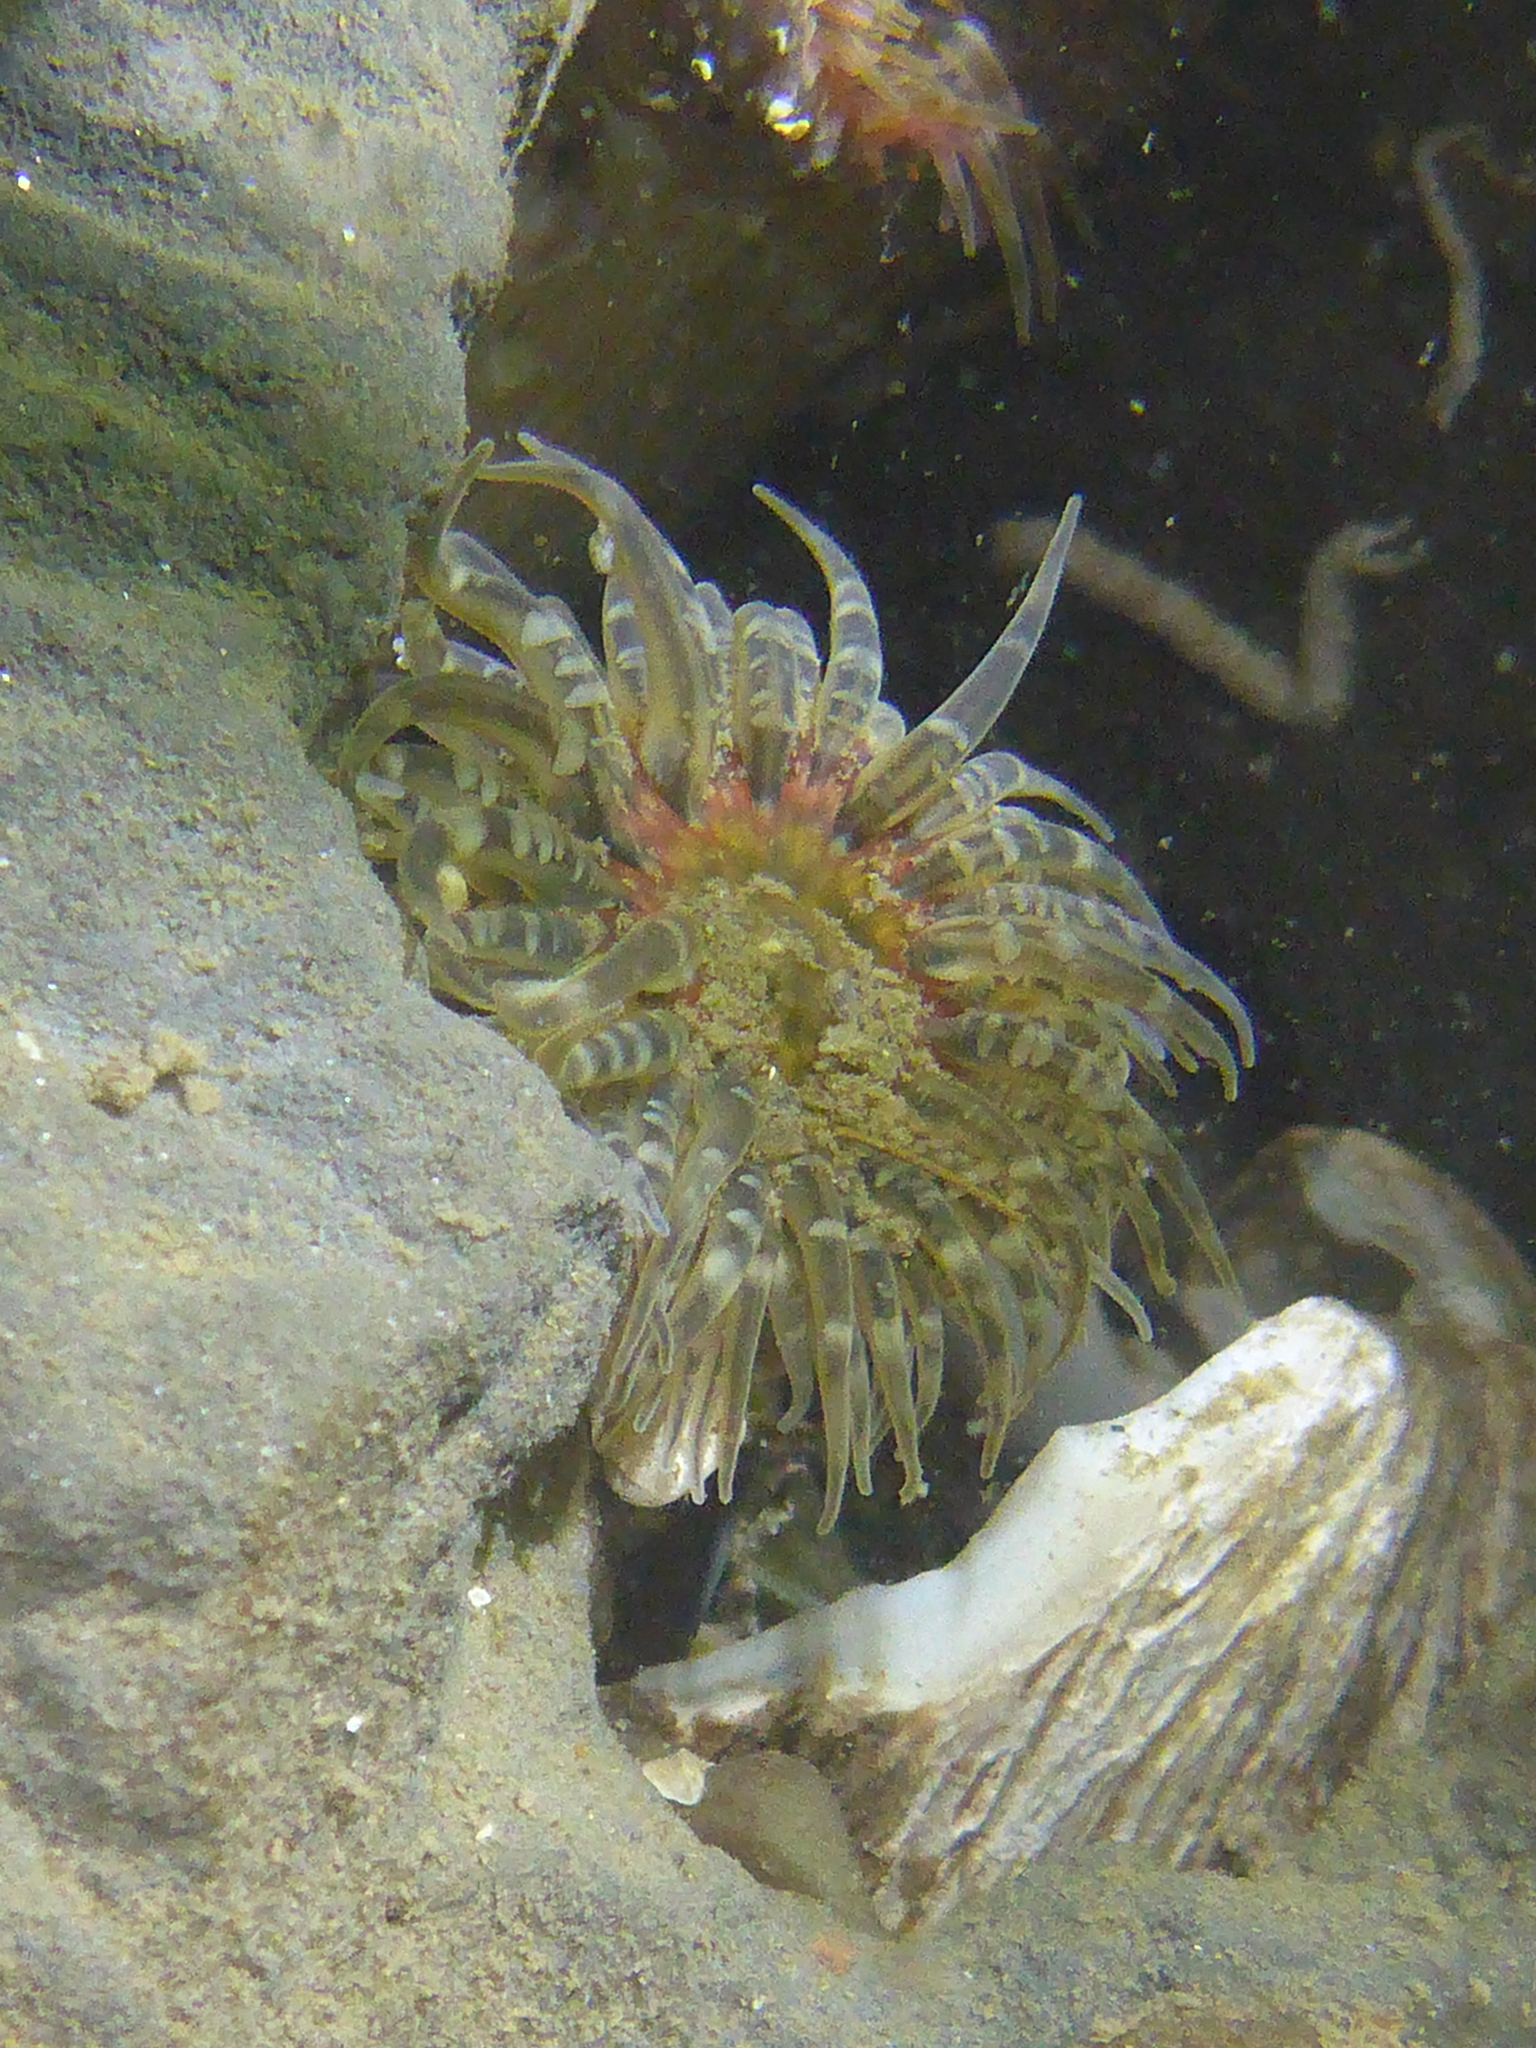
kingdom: Animalia
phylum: Cnidaria
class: Anthozoa
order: Actiniaria
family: Actiniidae
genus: Anthopleura
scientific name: Anthopleura artemisia
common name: Buried sea anemone
